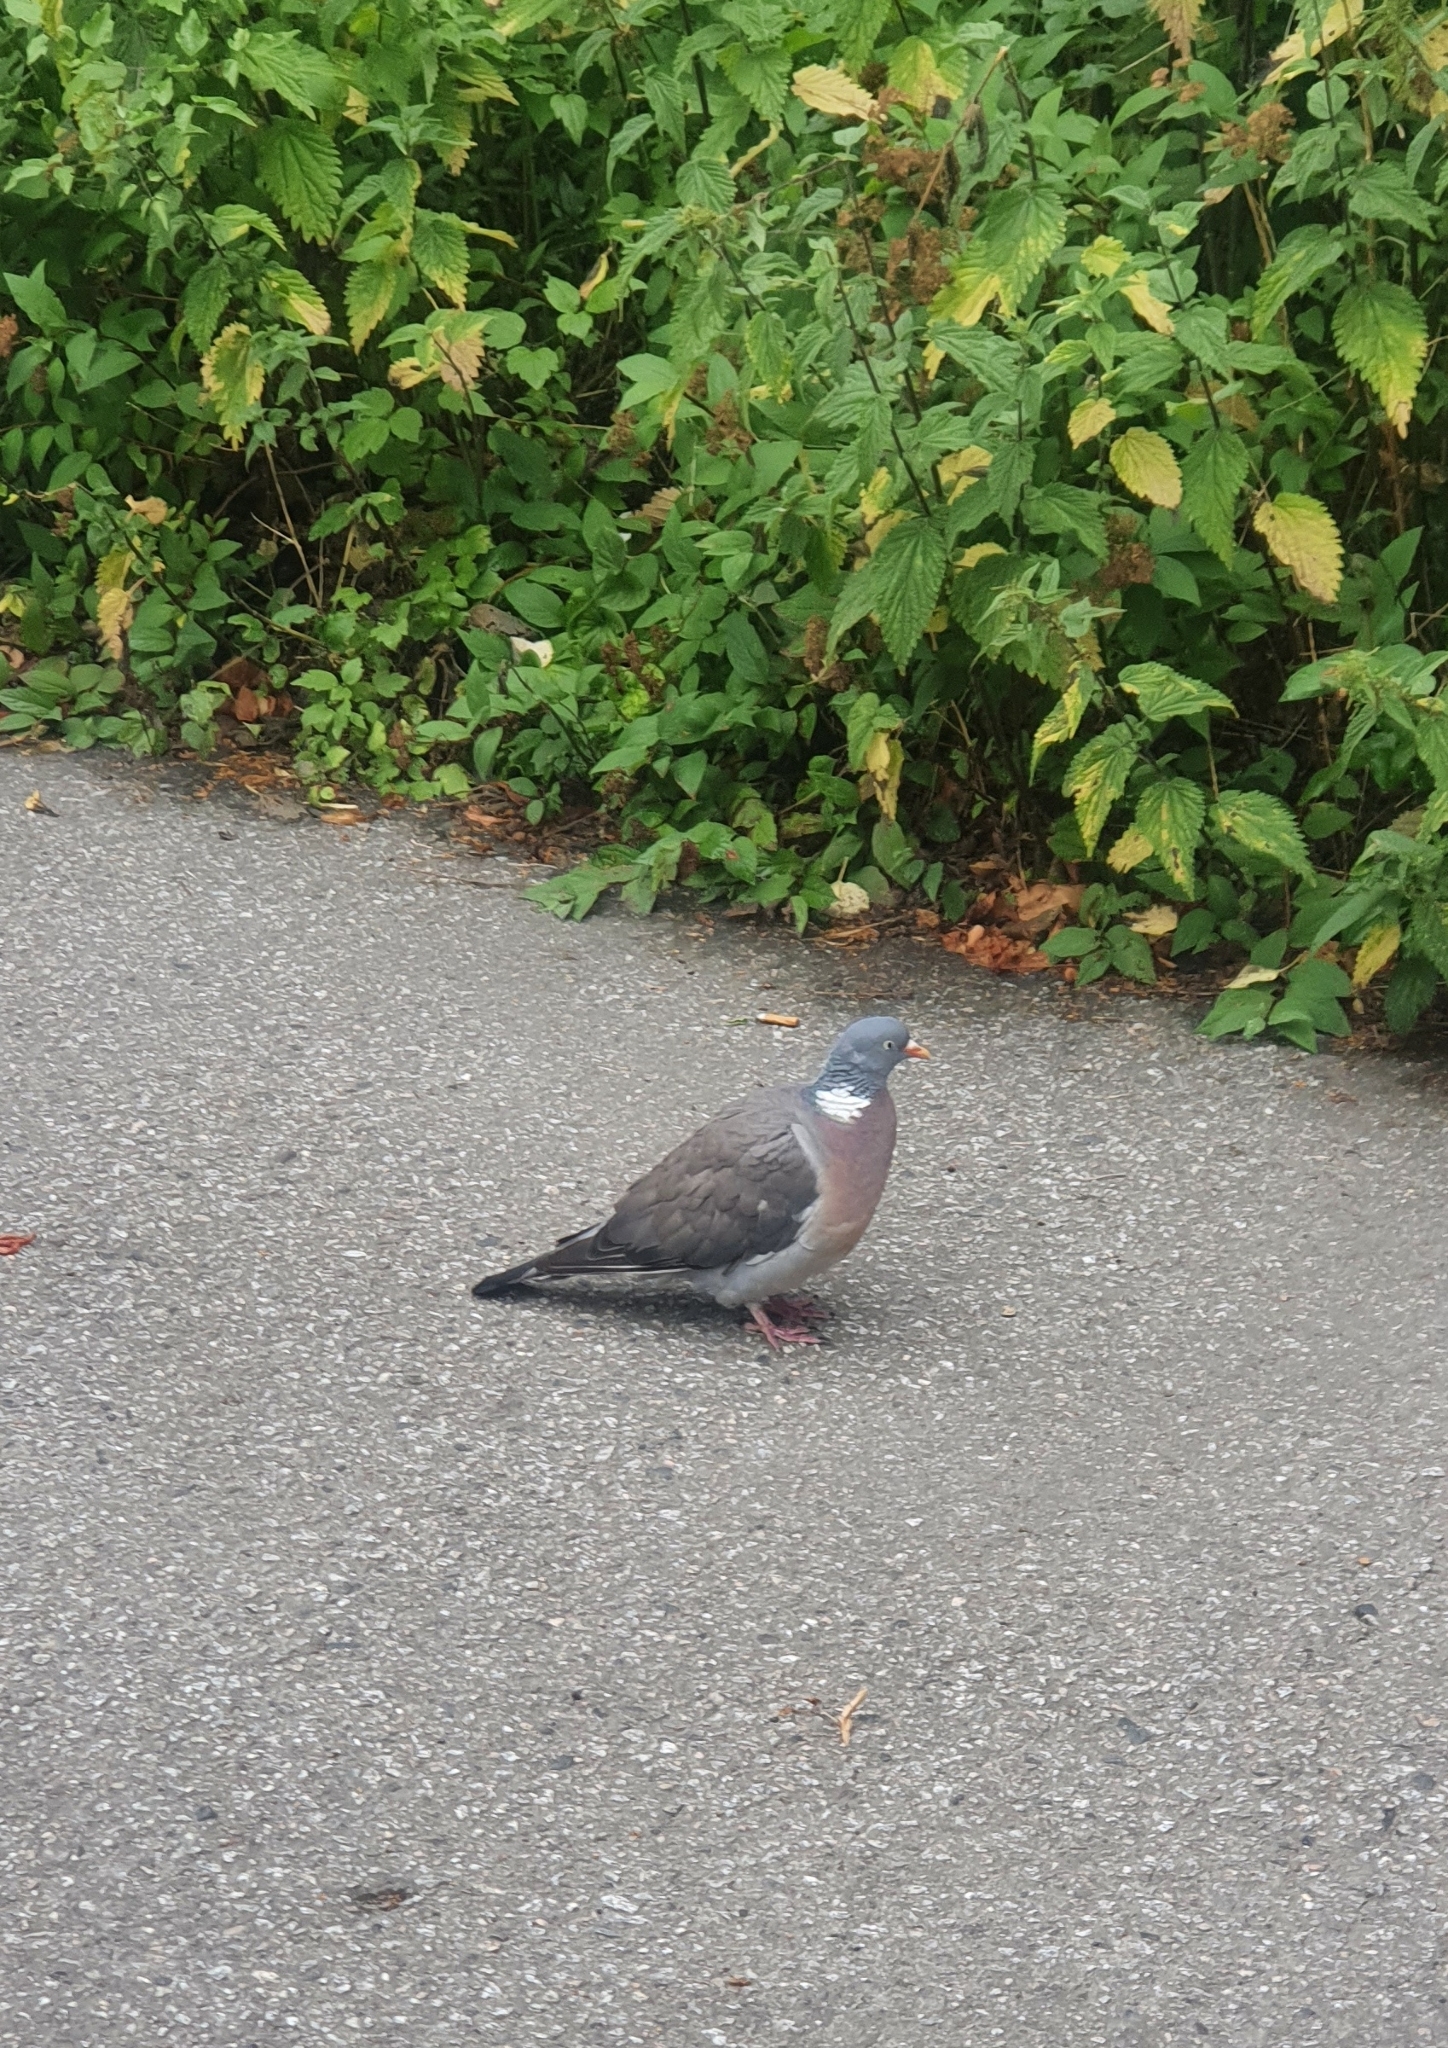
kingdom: Animalia
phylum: Chordata
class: Aves
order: Columbiformes
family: Columbidae
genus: Columba
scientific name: Columba palumbus
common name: Common wood pigeon
